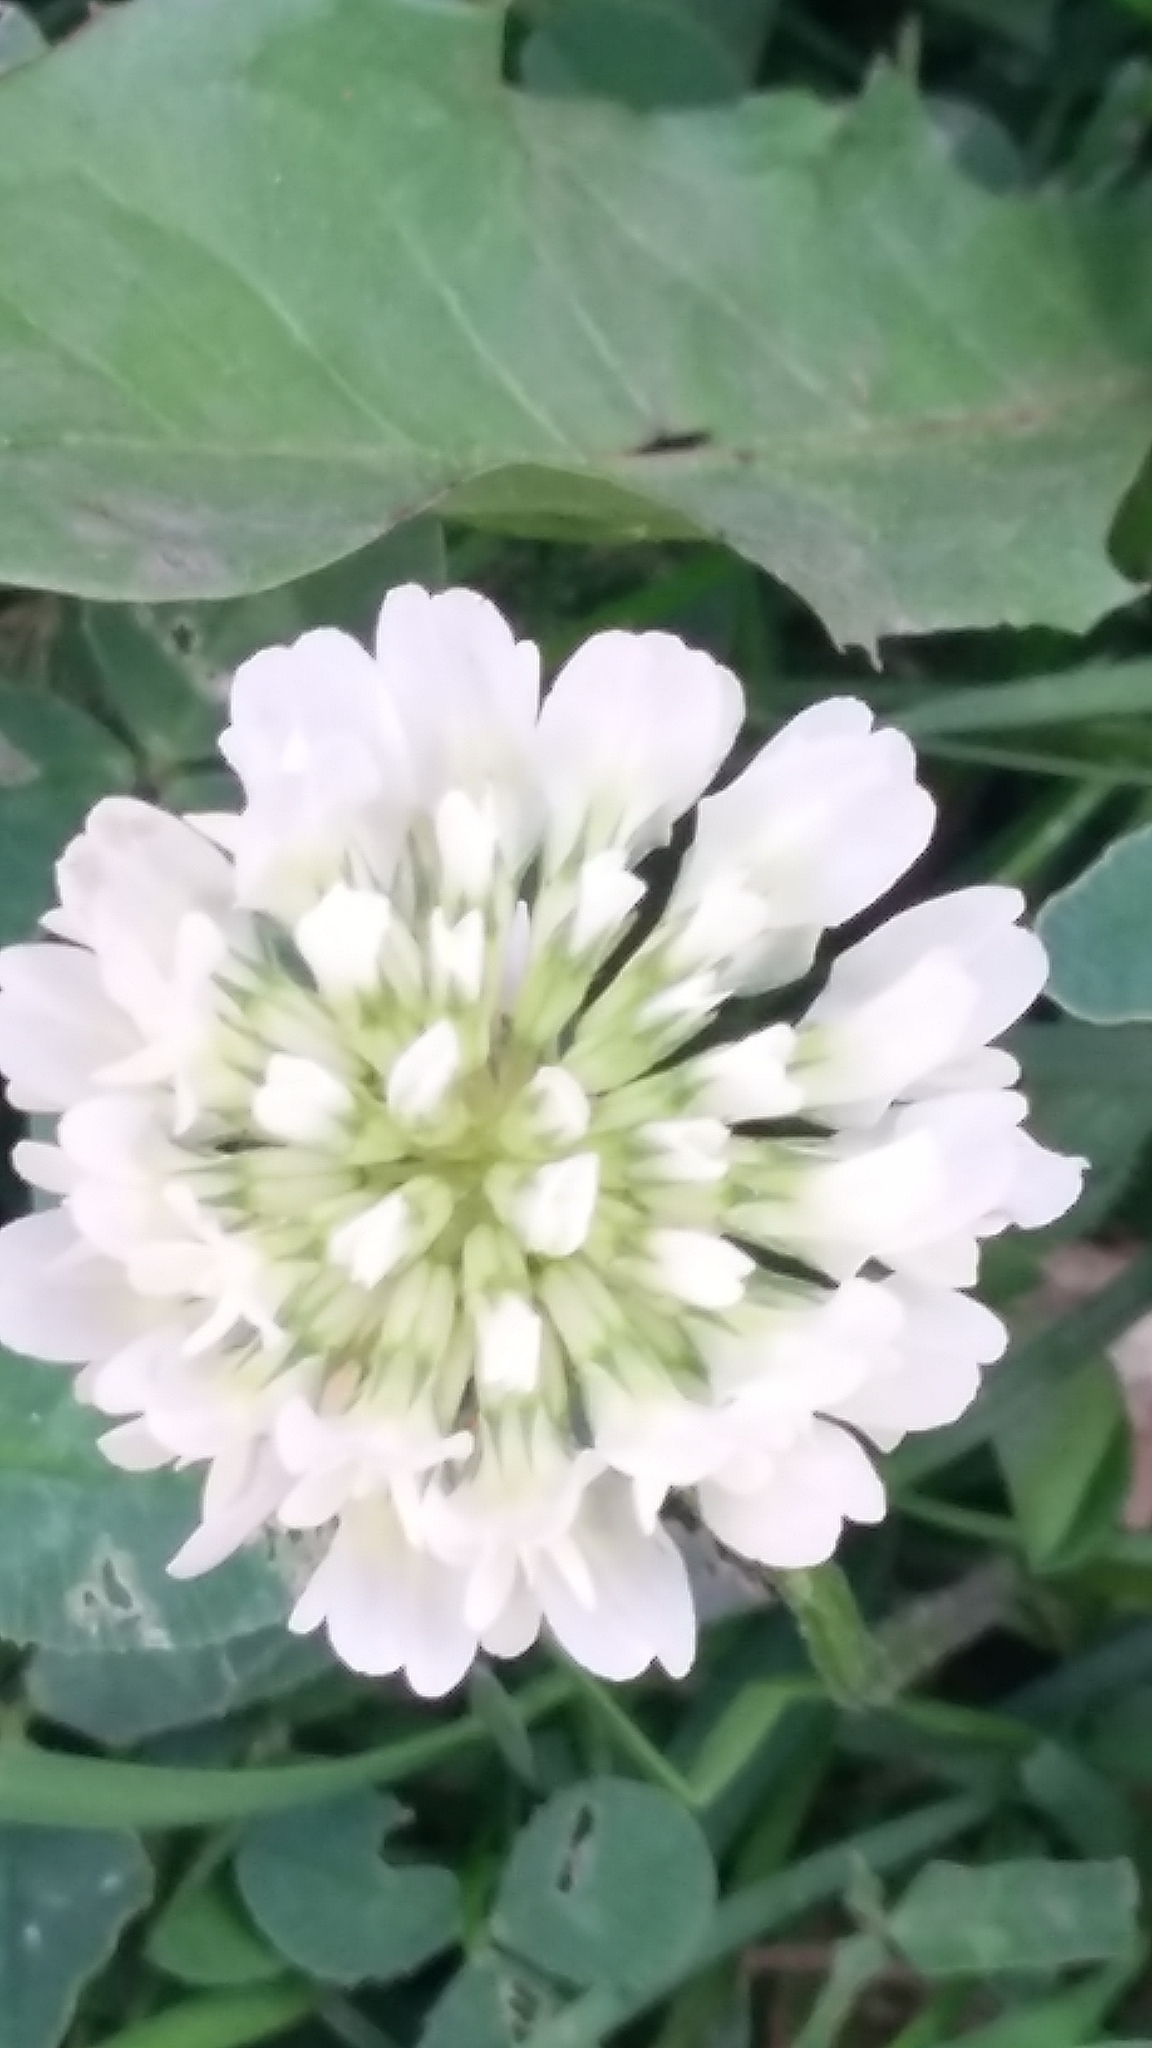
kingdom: Plantae
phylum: Tracheophyta
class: Magnoliopsida
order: Fabales
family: Fabaceae
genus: Trifolium
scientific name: Trifolium repens
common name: White clover
